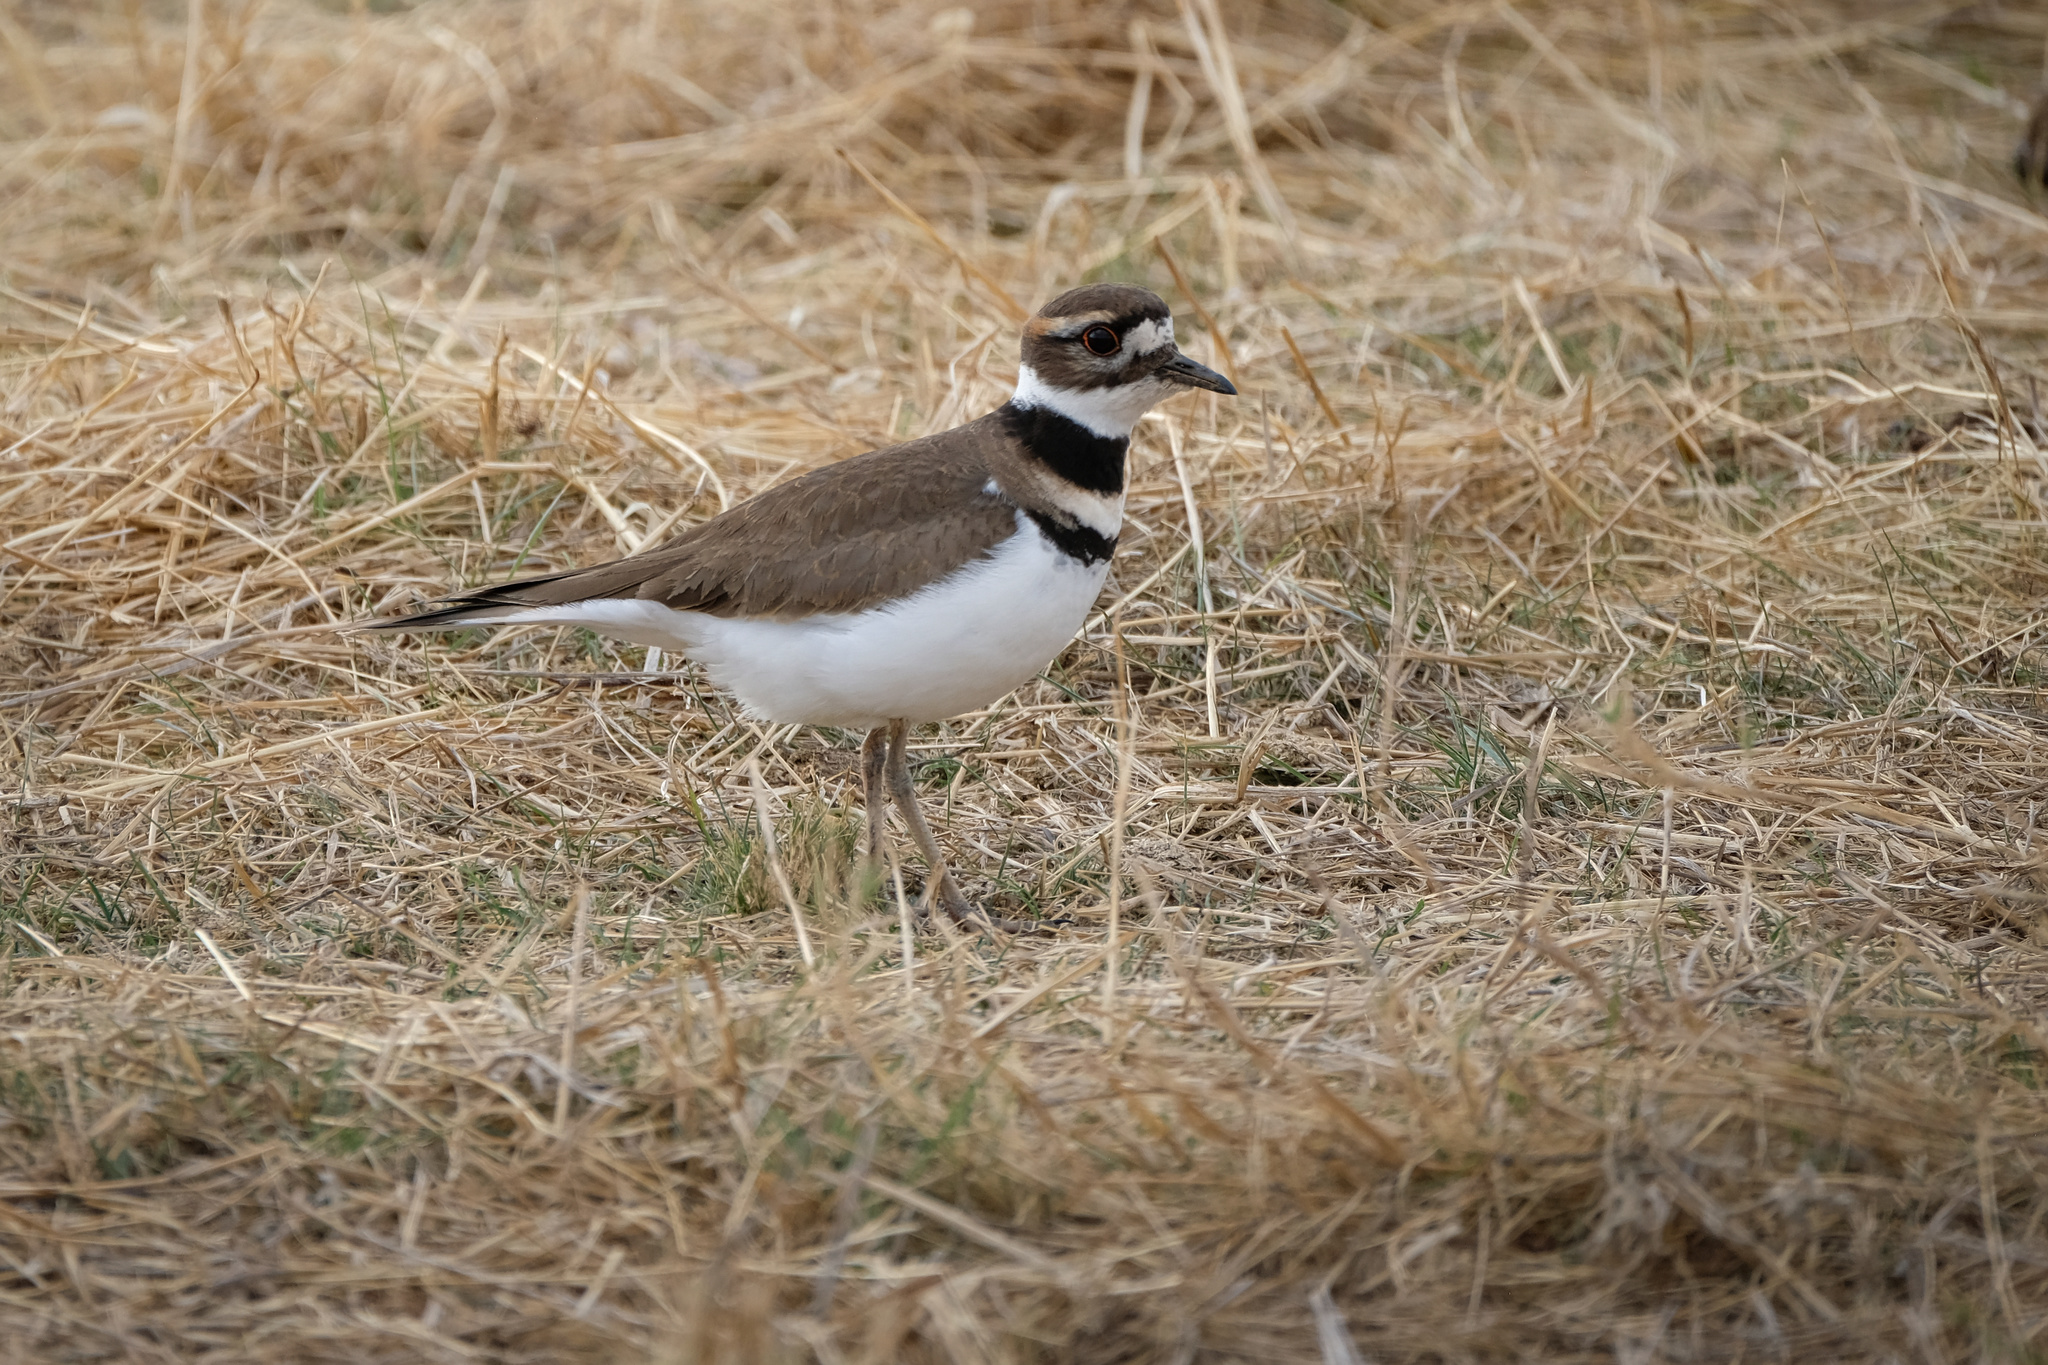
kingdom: Animalia
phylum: Chordata
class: Aves
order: Charadriiformes
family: Charadriidae
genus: Charadrius
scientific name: Charadrius vociferus
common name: Killdeer
